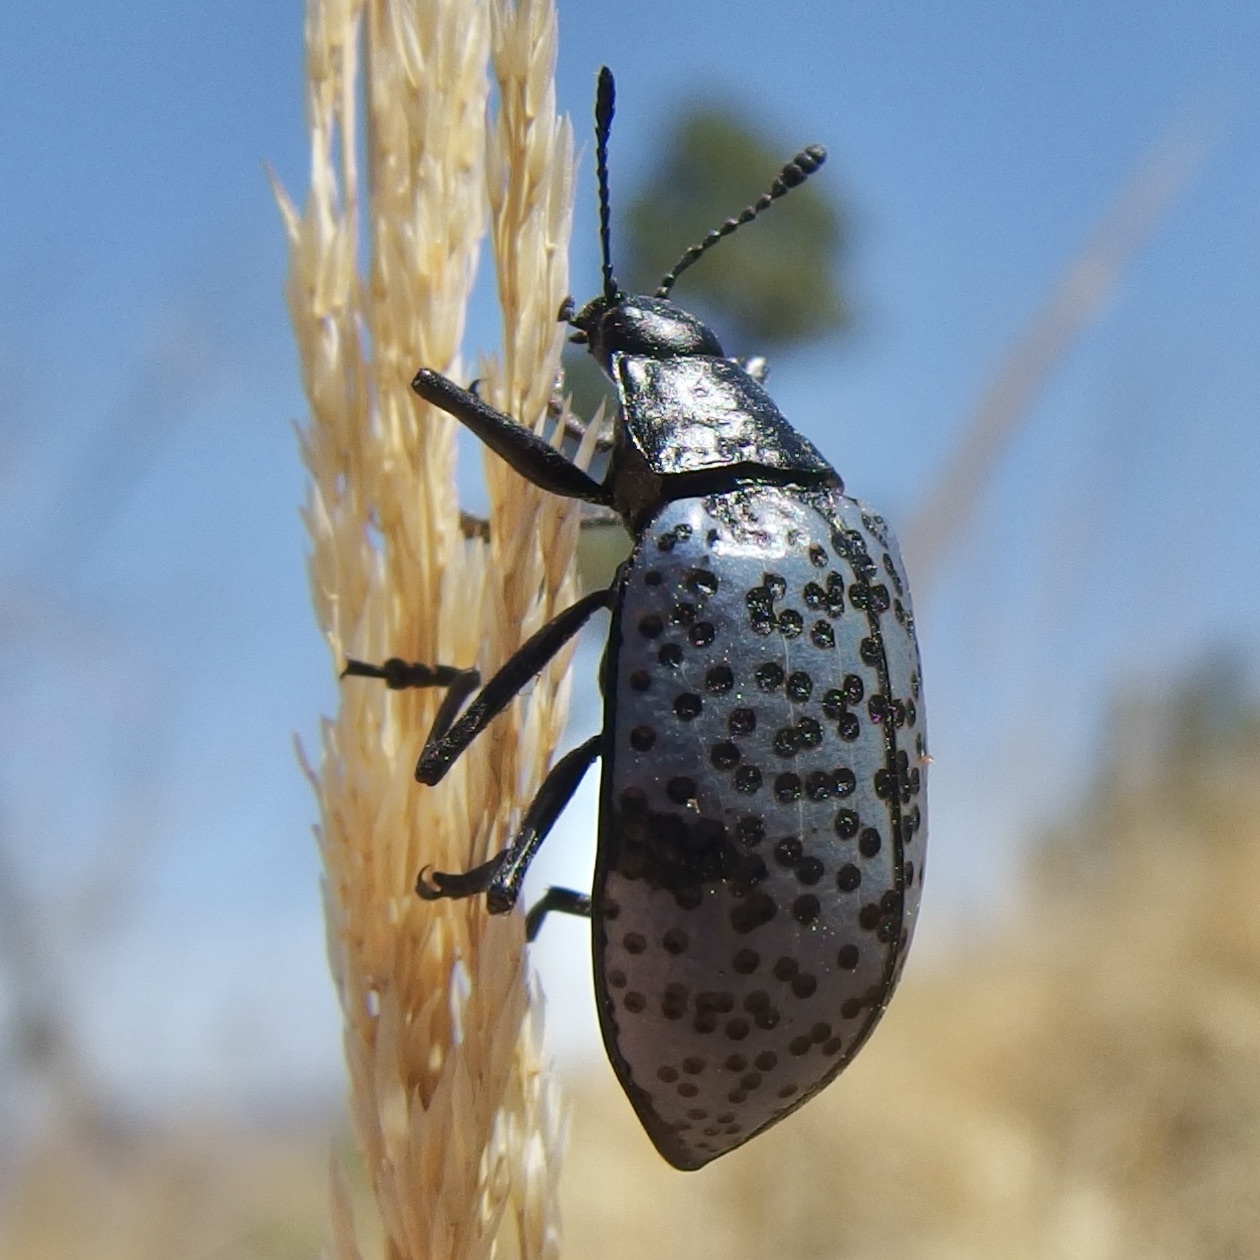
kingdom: Animalia
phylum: Arthropoda
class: Insecta
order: Coleoptera
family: Erotylidae
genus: Gibbifer
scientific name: Gibbifer californicus
